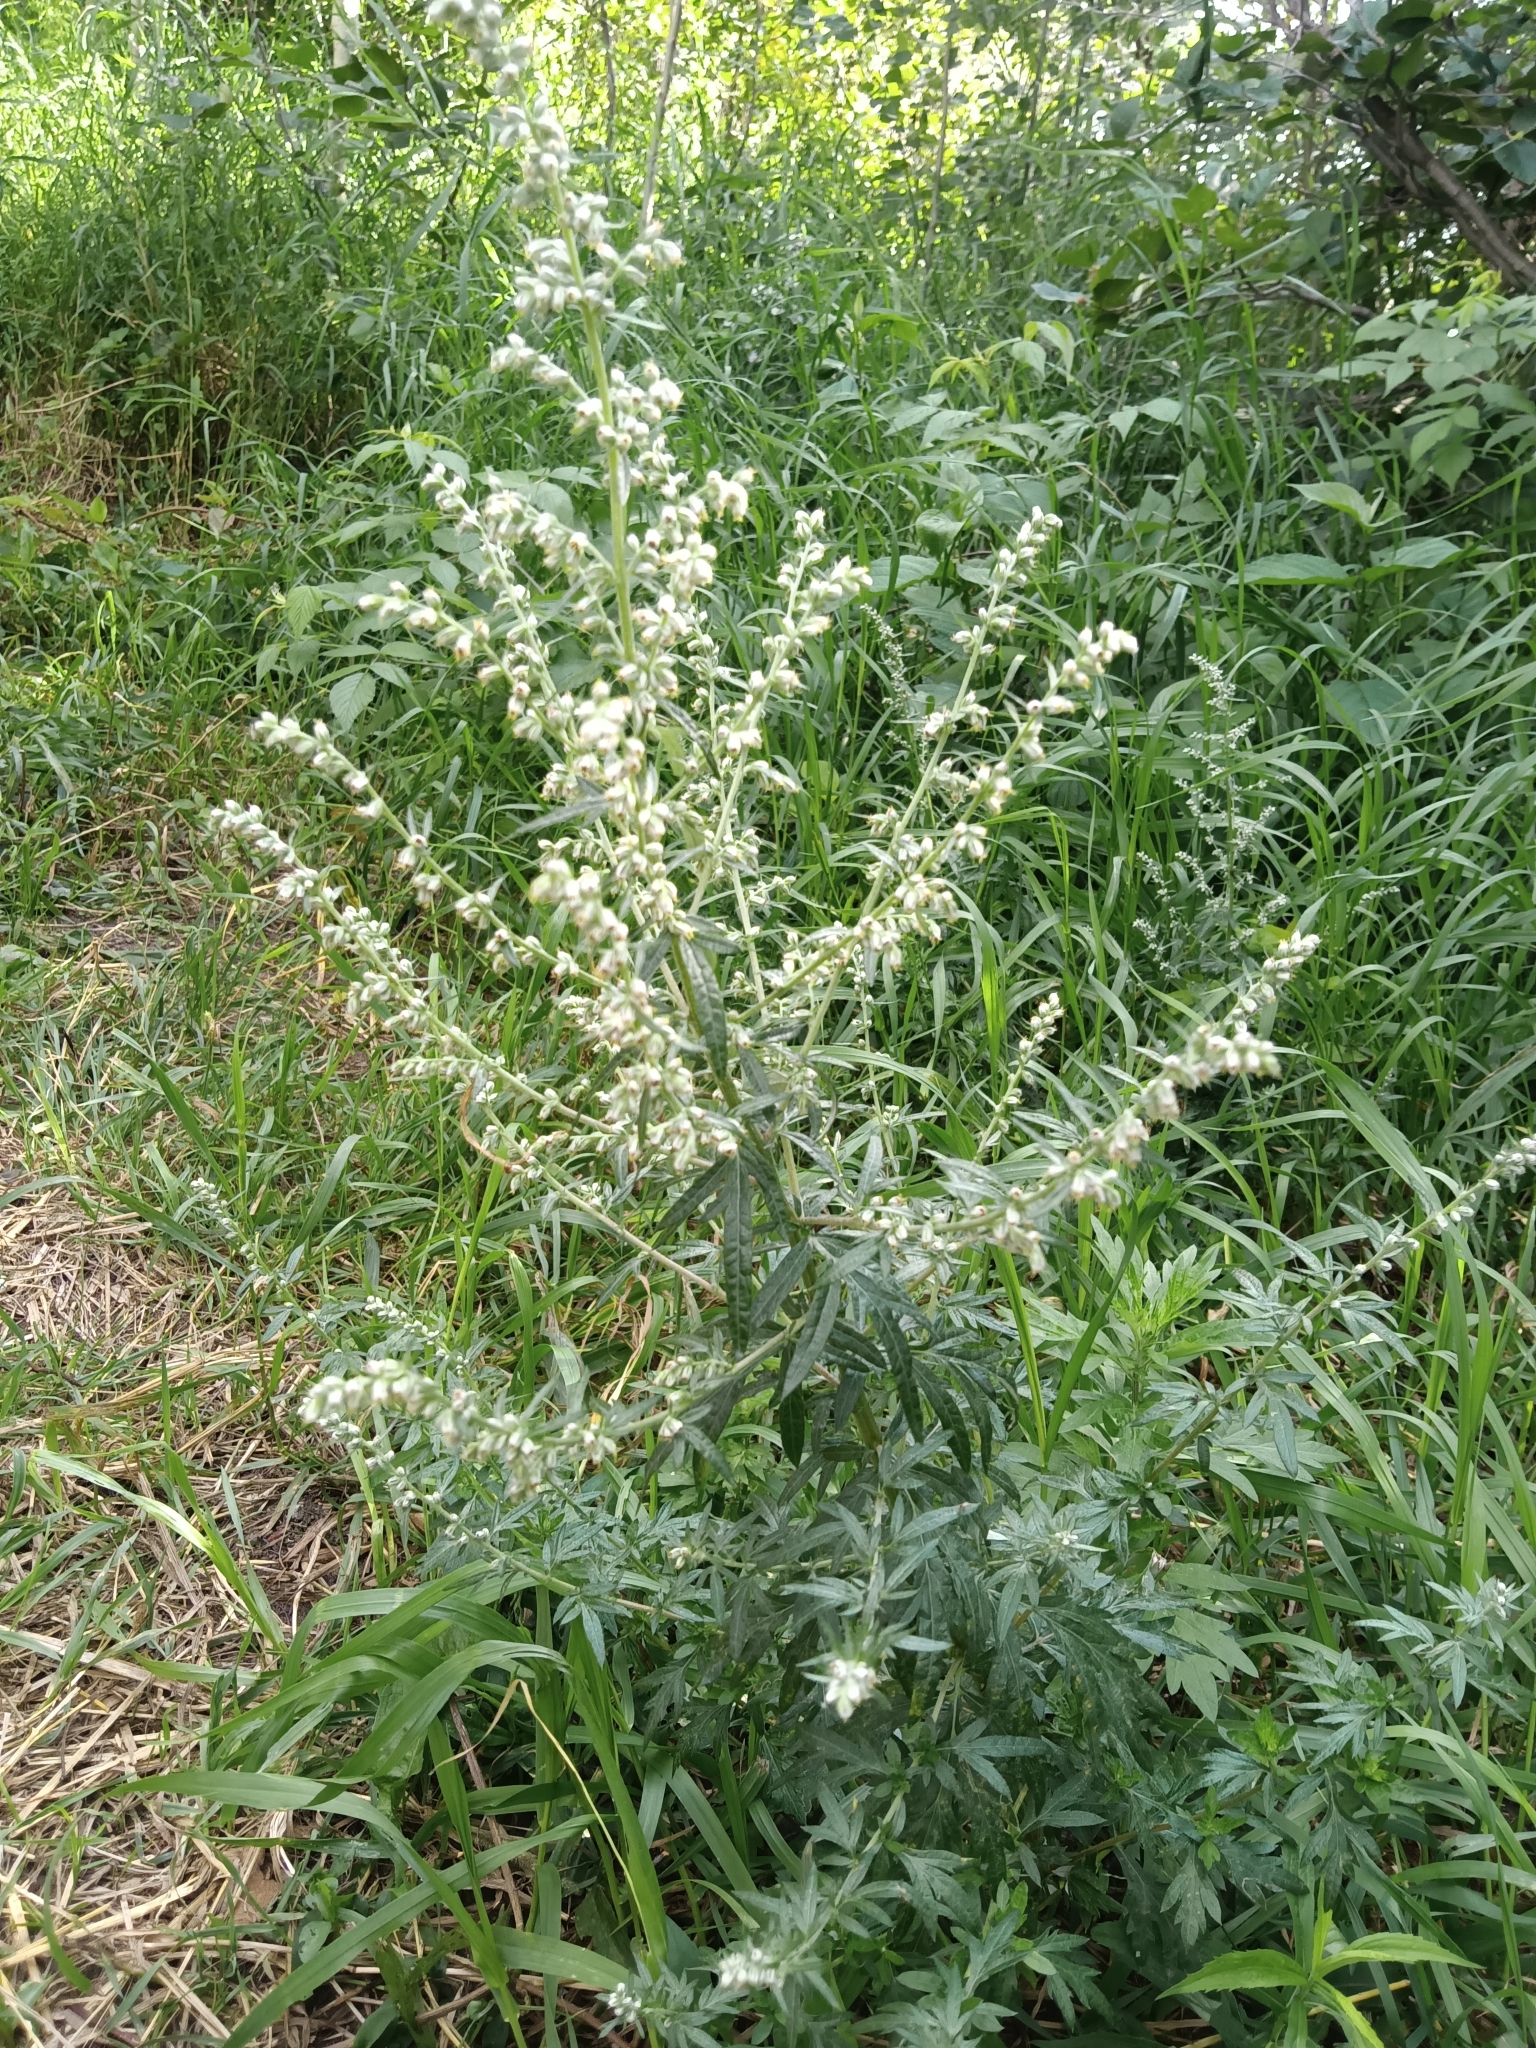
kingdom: Plantae
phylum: Tracheophyta
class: Magnoliopsida
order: Asterales
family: Asteraceae
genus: Artemisia
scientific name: Artemisia vulgaris
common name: Mugwort
